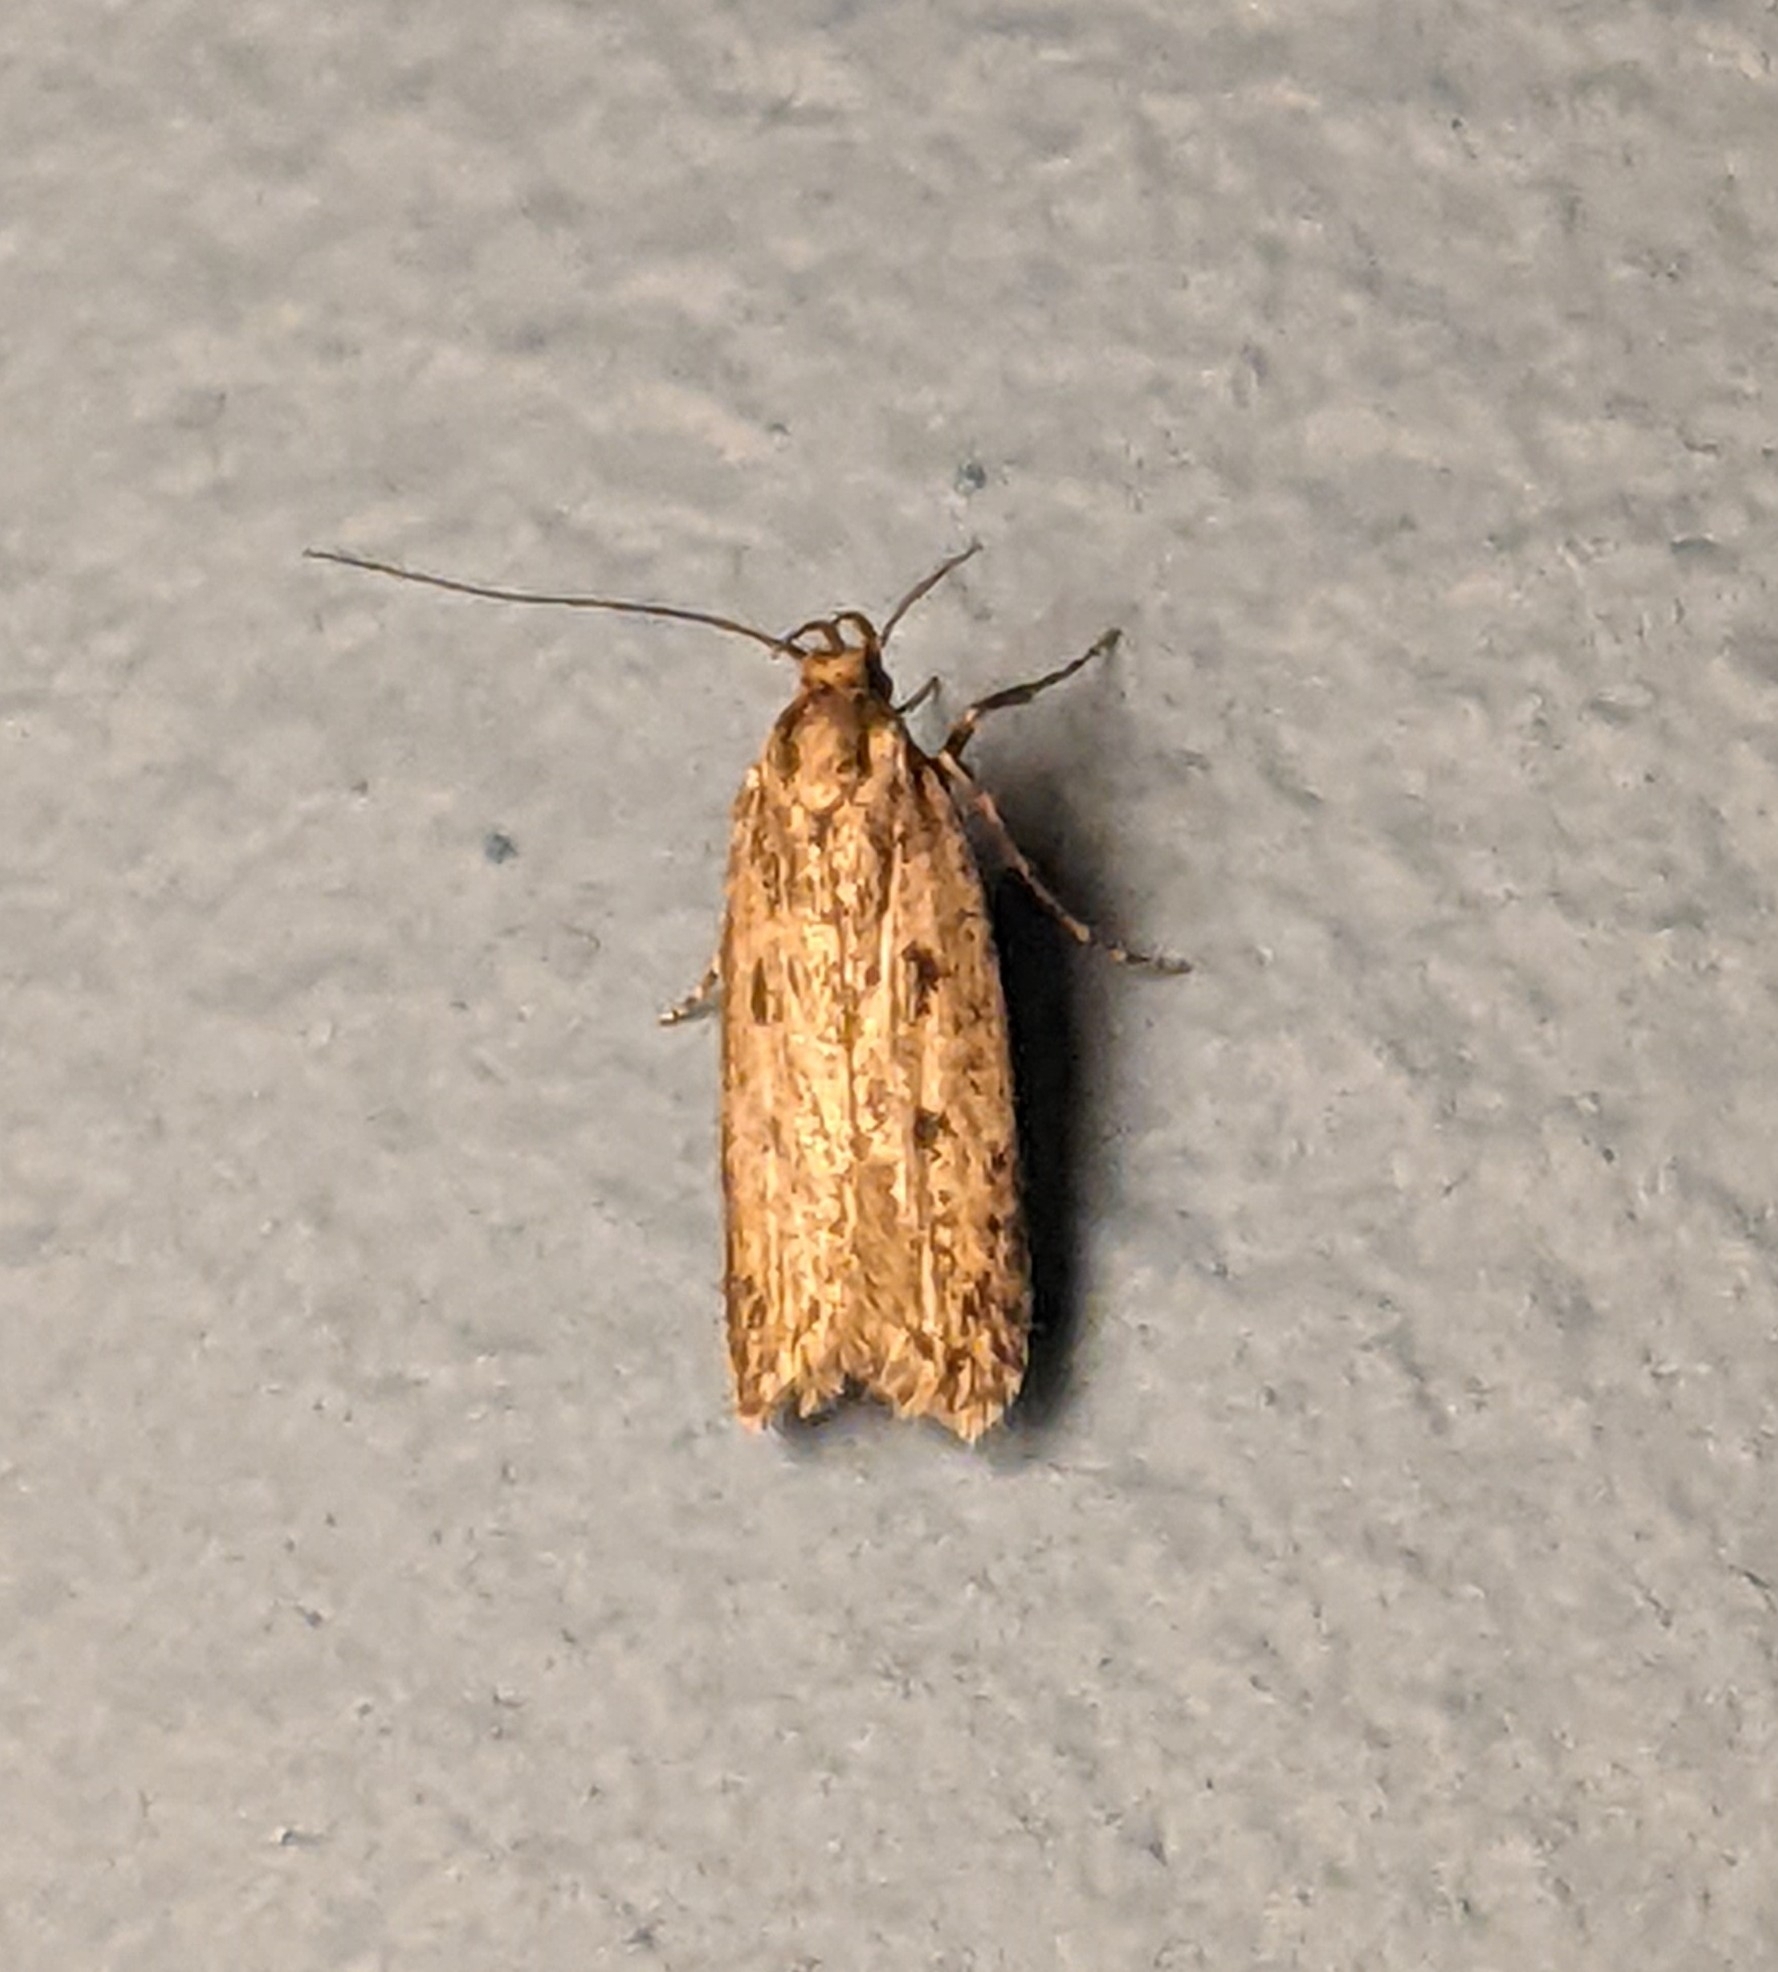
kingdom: Animalia
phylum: Arthropoda
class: Insecta
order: Lepidoptera
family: Oecophoridae
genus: Hofmannophila
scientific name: Hofmannophila pseudospretella
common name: Brown house moth
